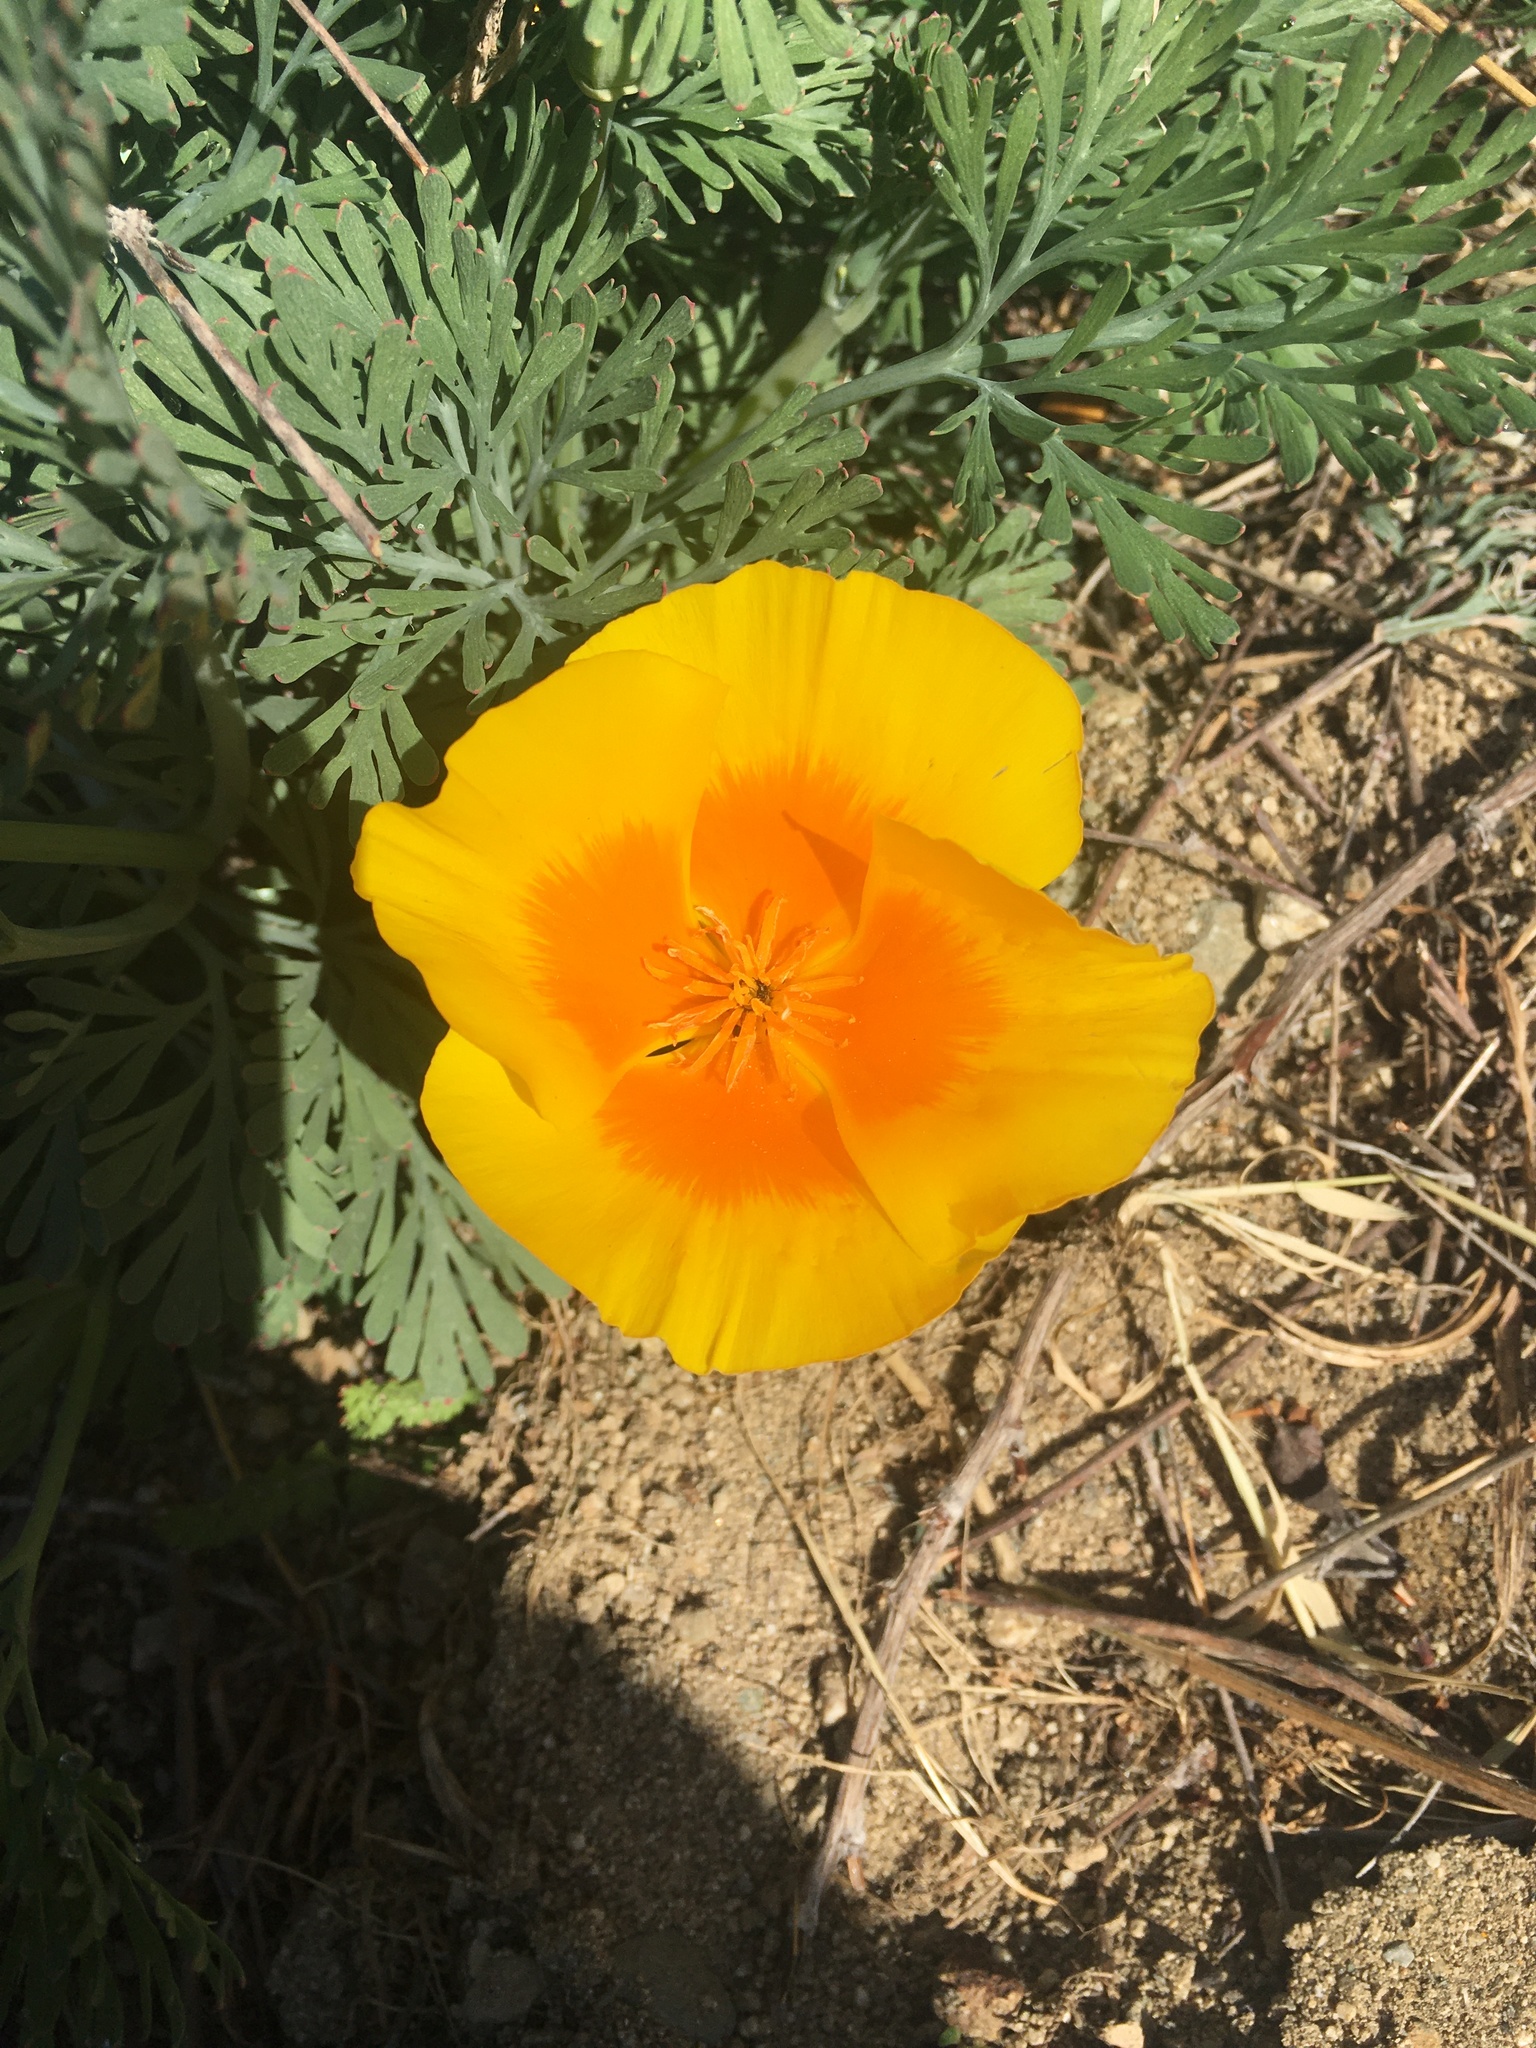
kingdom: Plantae
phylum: Tracheophyta
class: Magnoliopsida
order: Ranunculales
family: Papaveraceae
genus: Eschscholzia
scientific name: Eschscholzia californica
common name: California poppy
